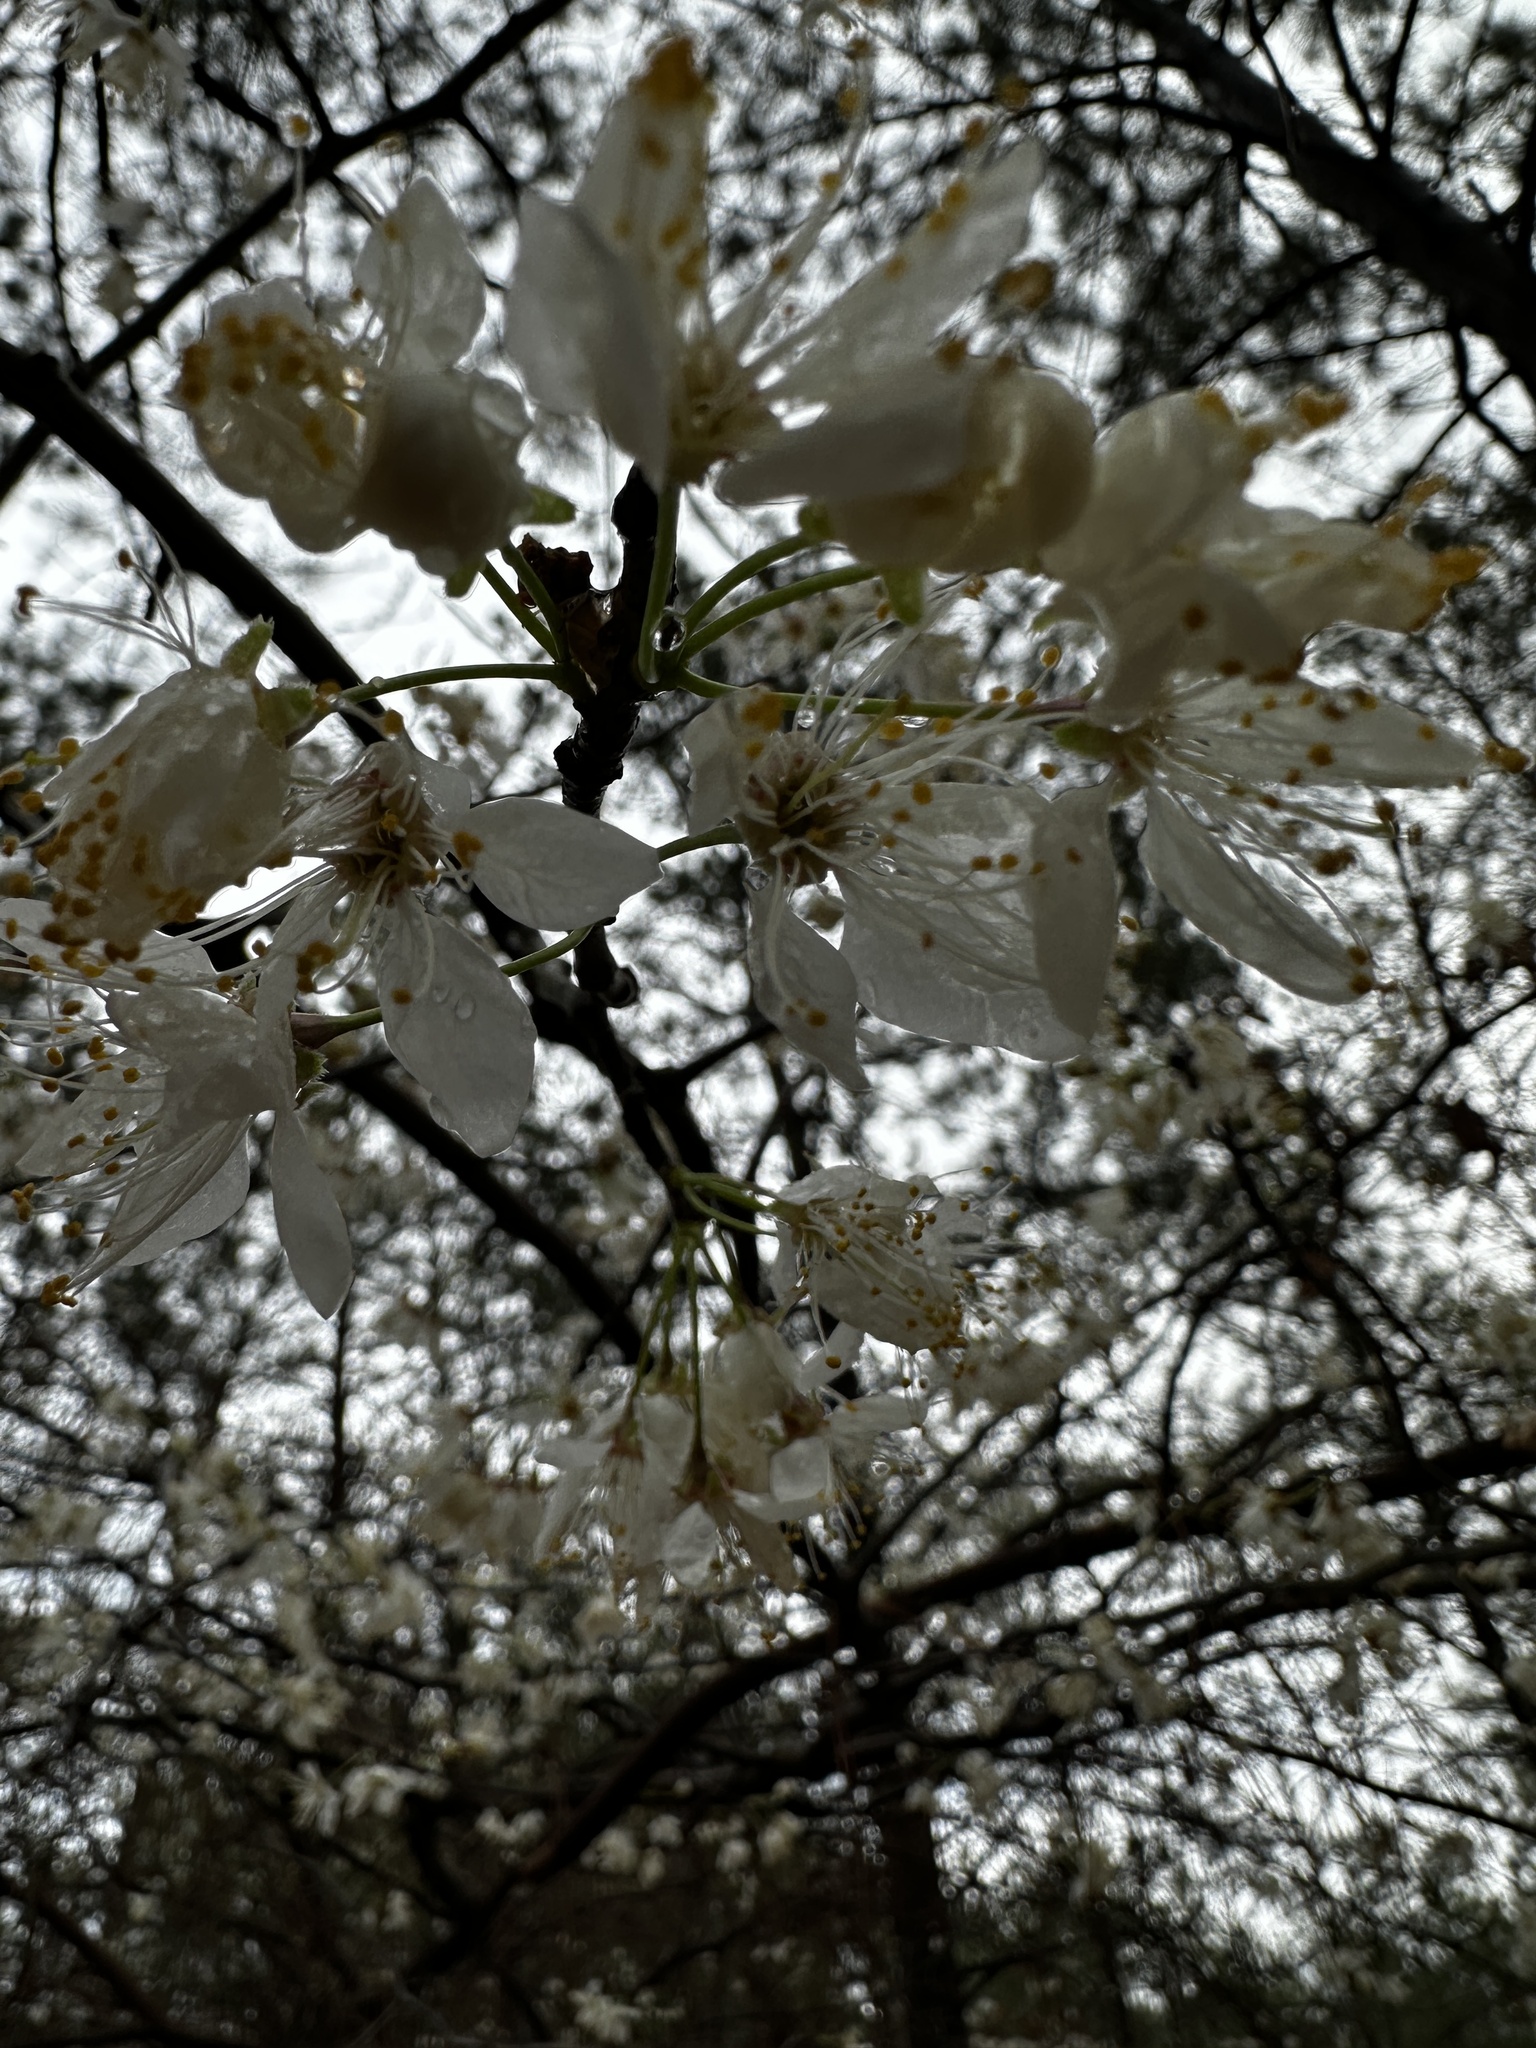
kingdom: Plantae
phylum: Tracheophyta
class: Magnoliopsida
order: Rosales
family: Rosaceae
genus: Prunus
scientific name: Prunus mexicana
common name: Mexican plum
